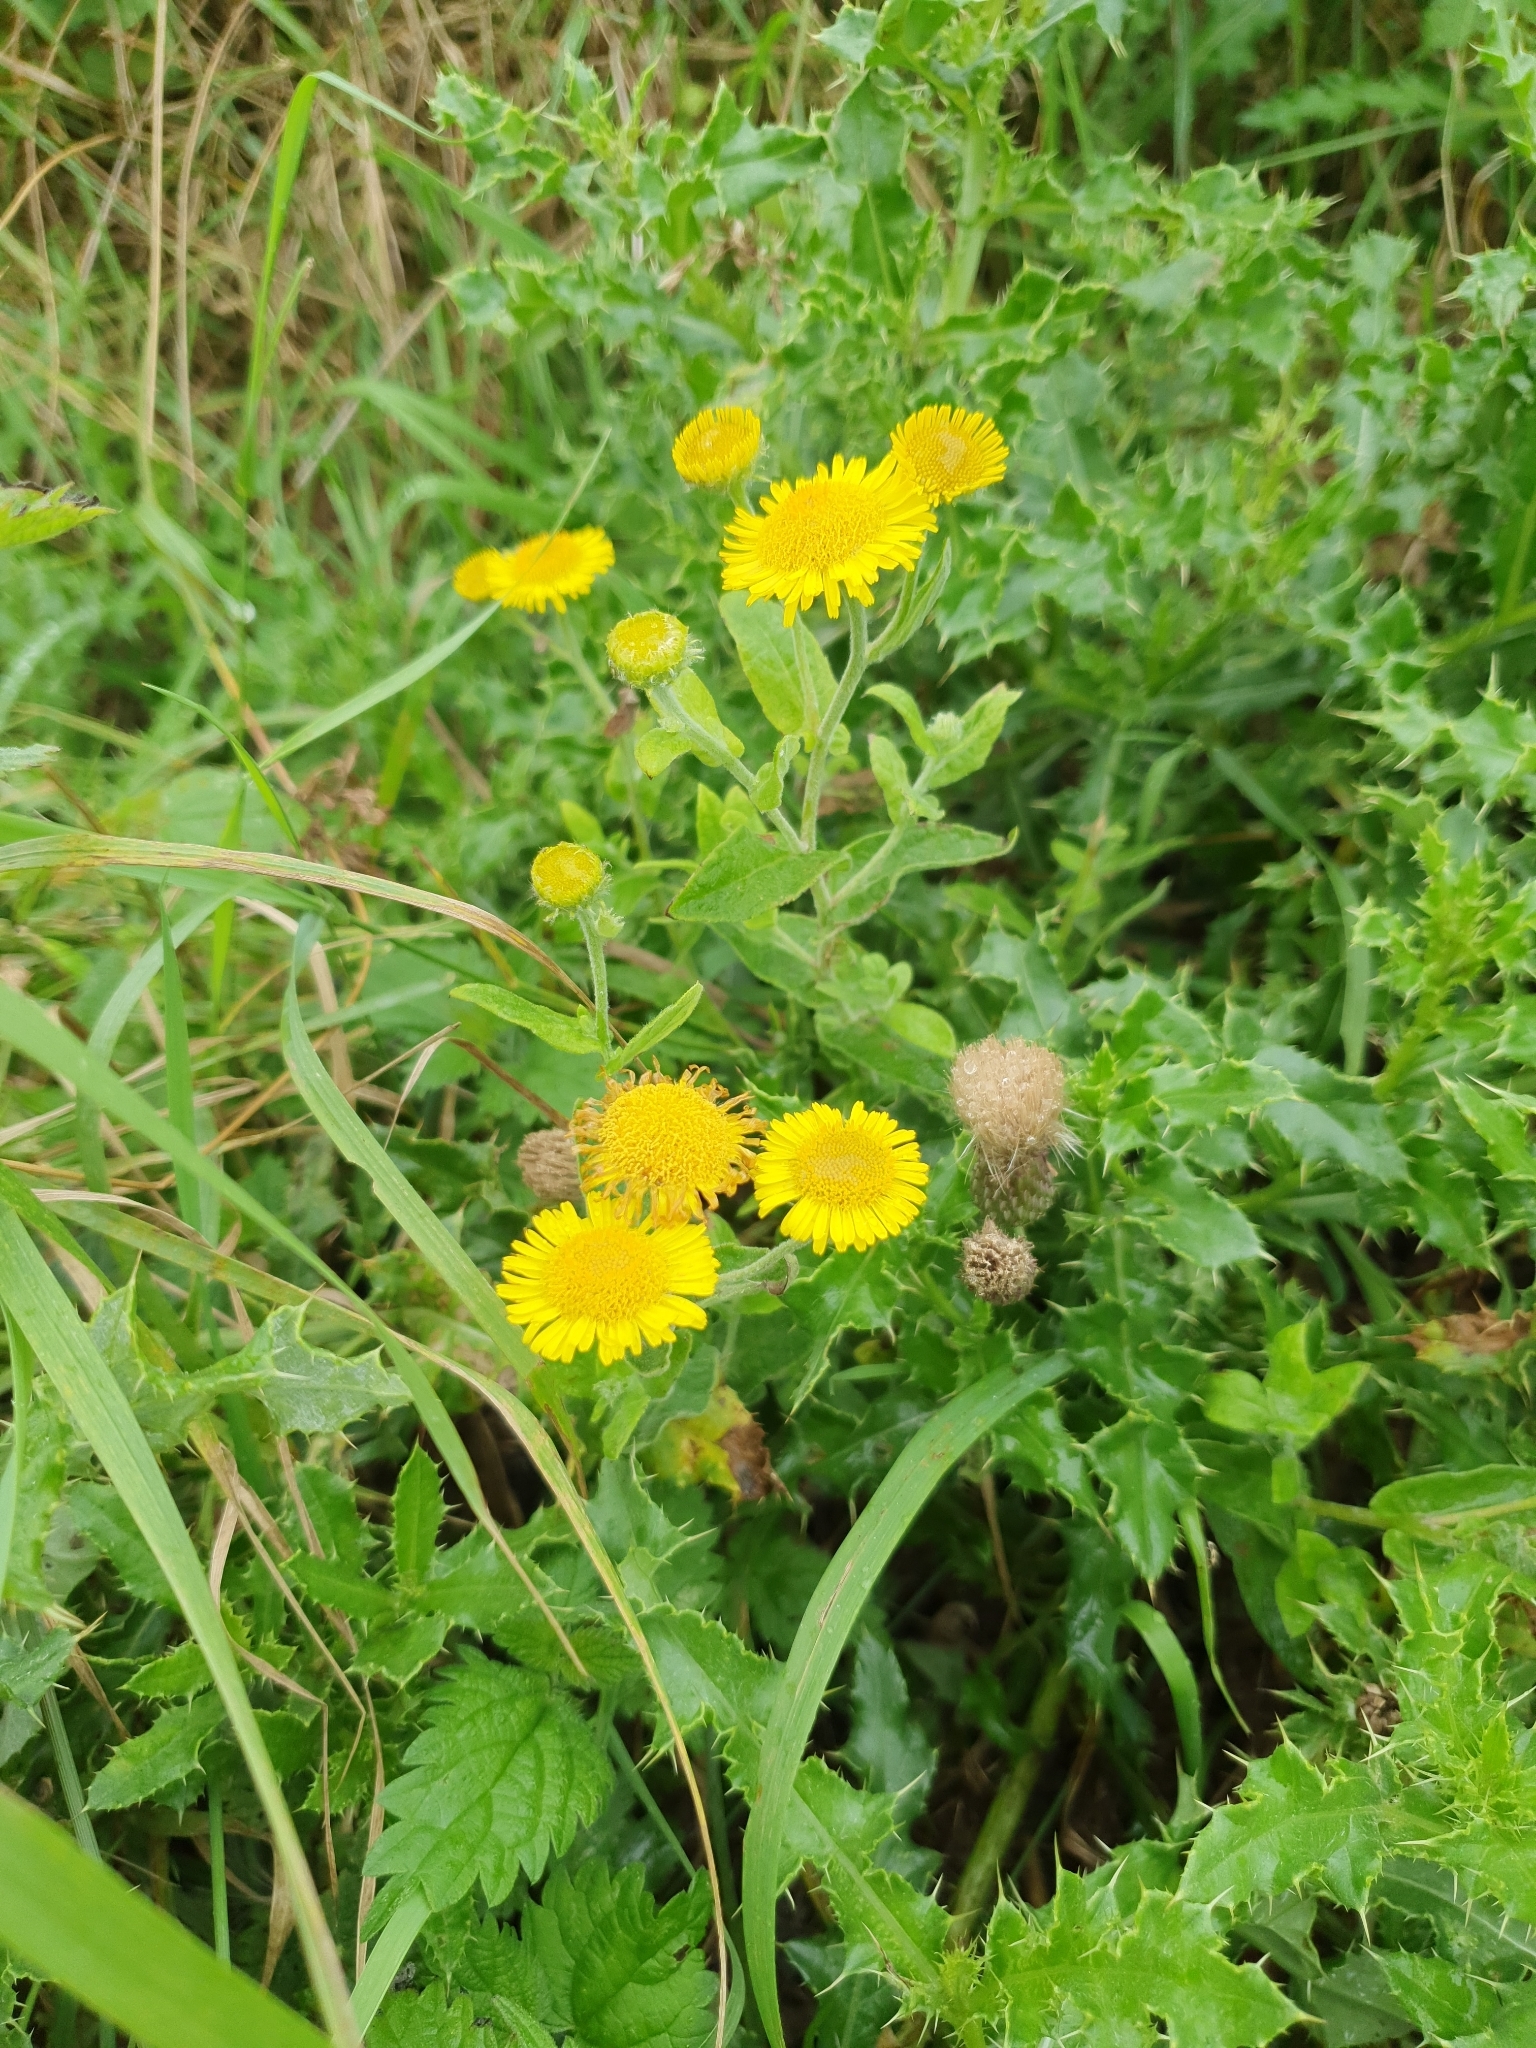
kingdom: Plantae
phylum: Tracheophyta
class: Magnoliopsida
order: Asterales
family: Asteraceae
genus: Pulicaria
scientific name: Pulicaria dysenterica
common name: Common fleabane
